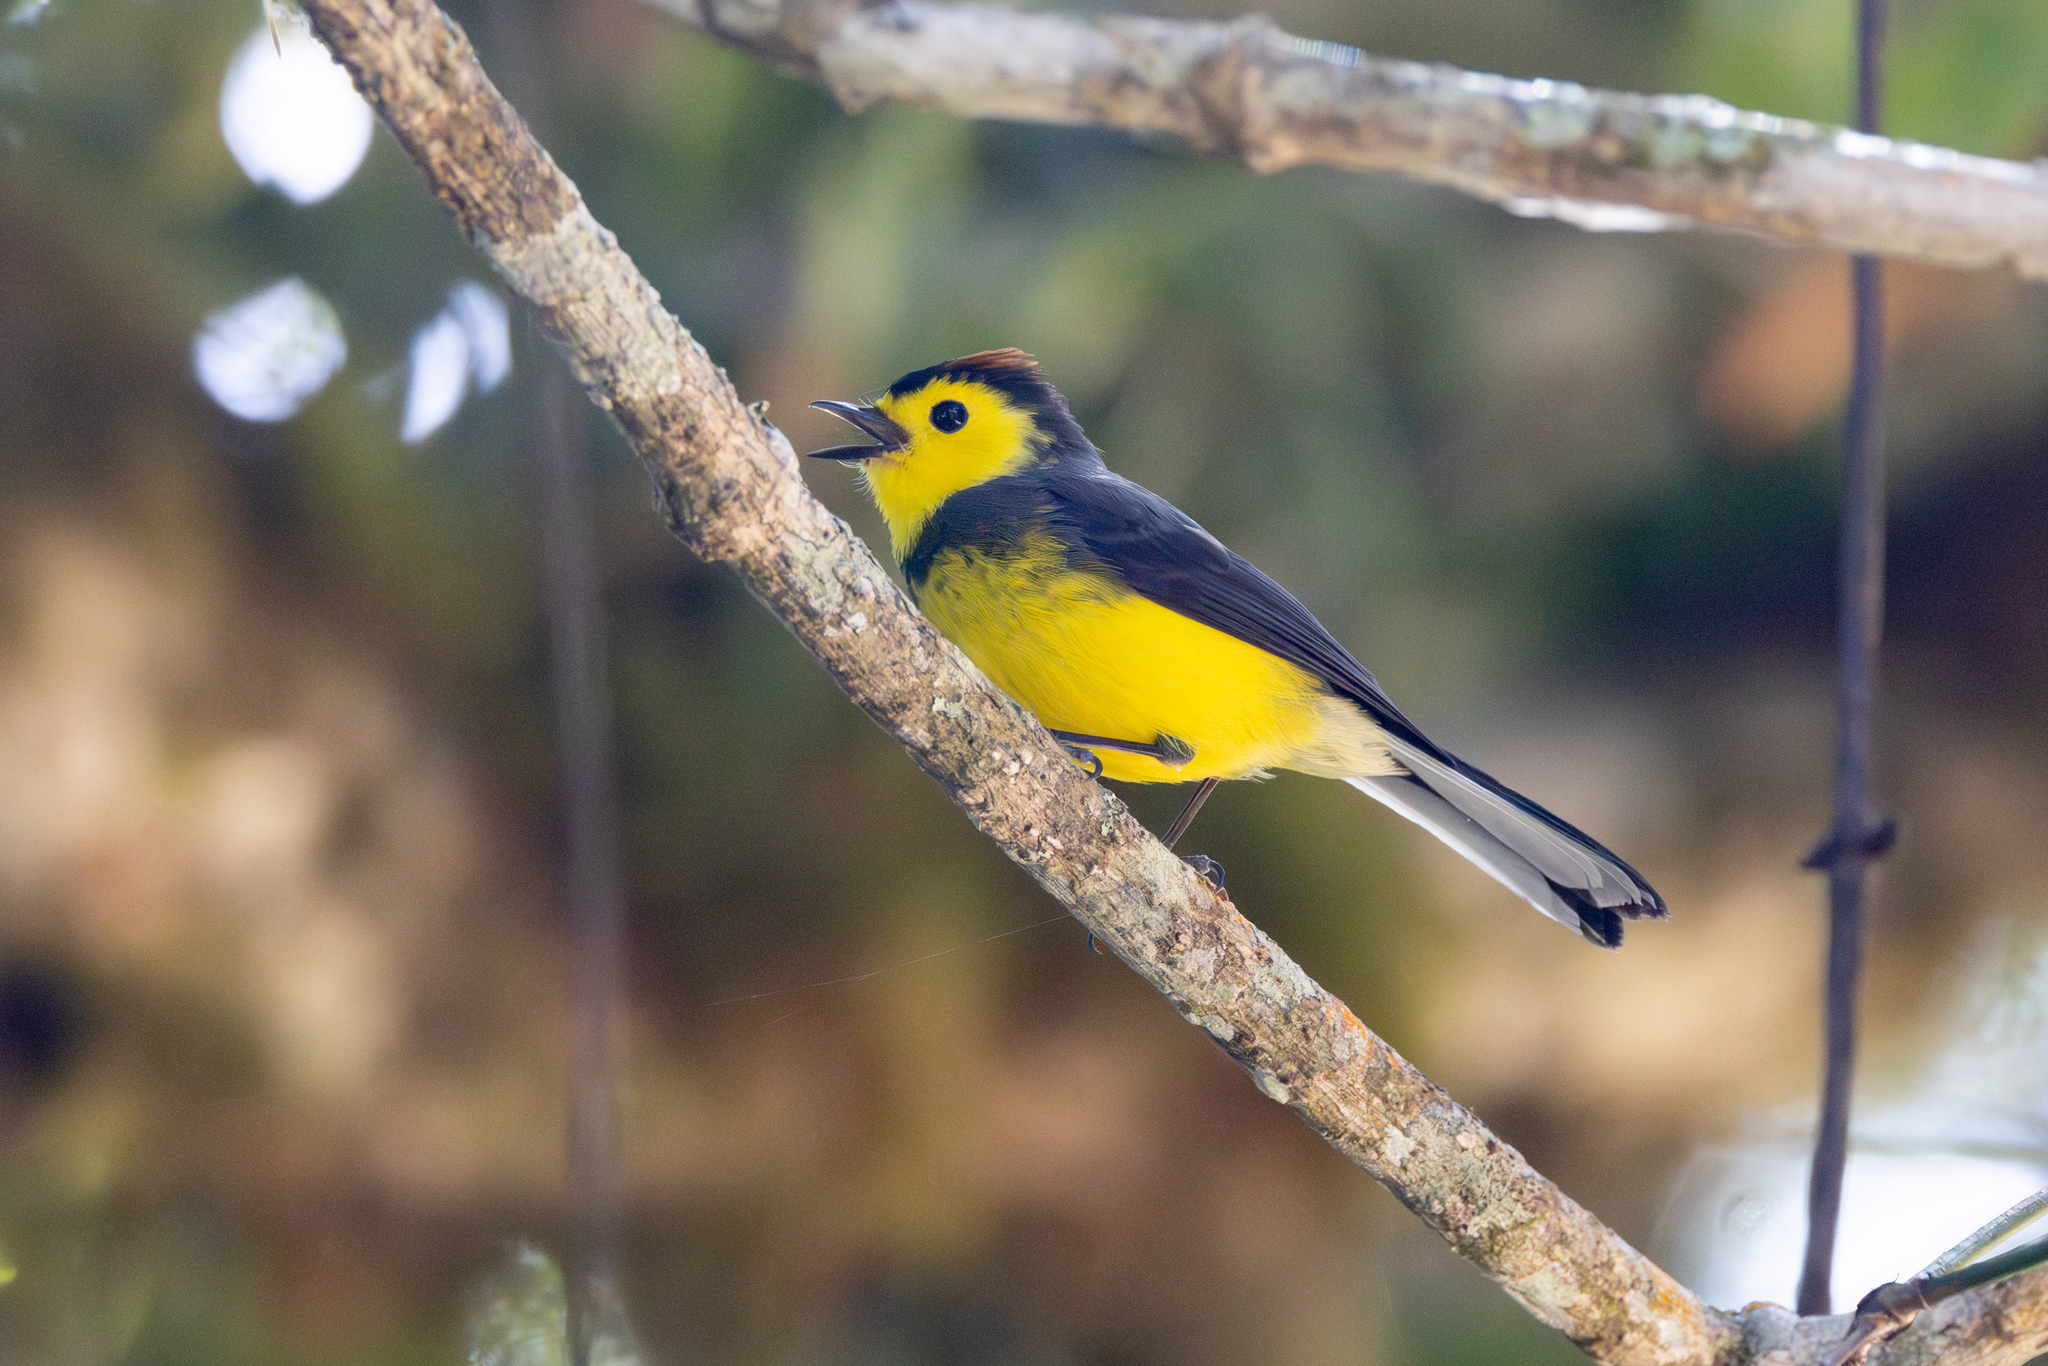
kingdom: Animalia
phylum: Chordata
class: Aves
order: Passeriformes
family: Parulidae
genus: Myioborus
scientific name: Myioborus torquatus
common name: Collared whitestart
